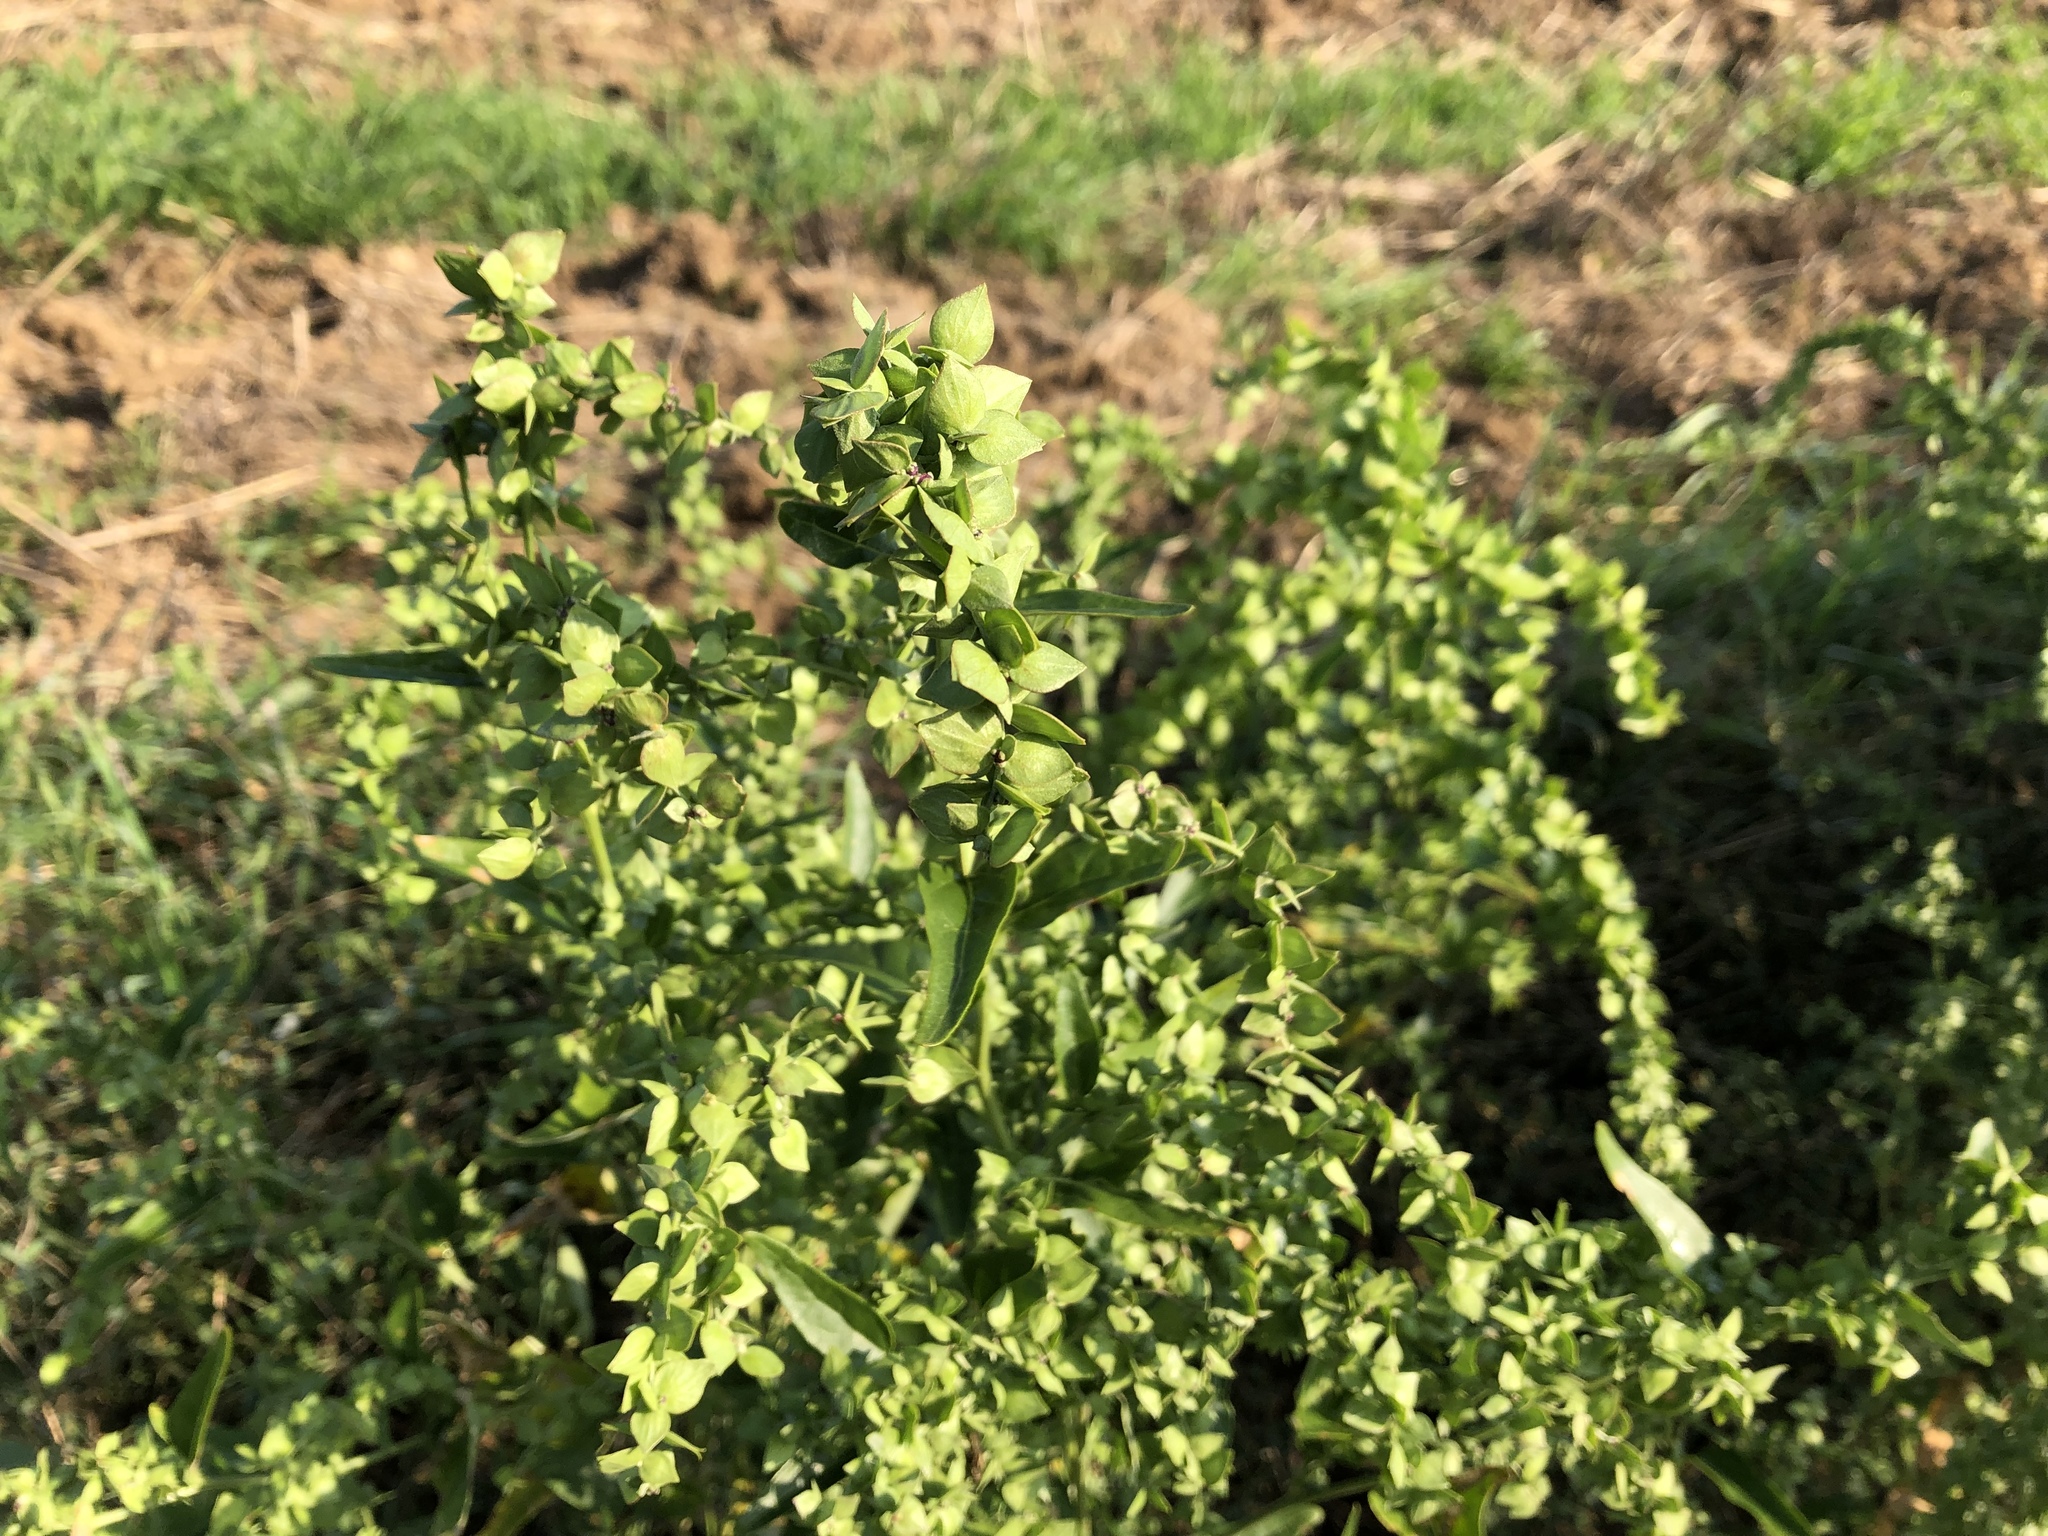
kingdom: Plantae
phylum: Tracheophyta
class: Magnoliopsida
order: Caryophyllales
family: Amaranthaceae
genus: Atriplex
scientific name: Atriplex sagittata
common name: Purple orache
